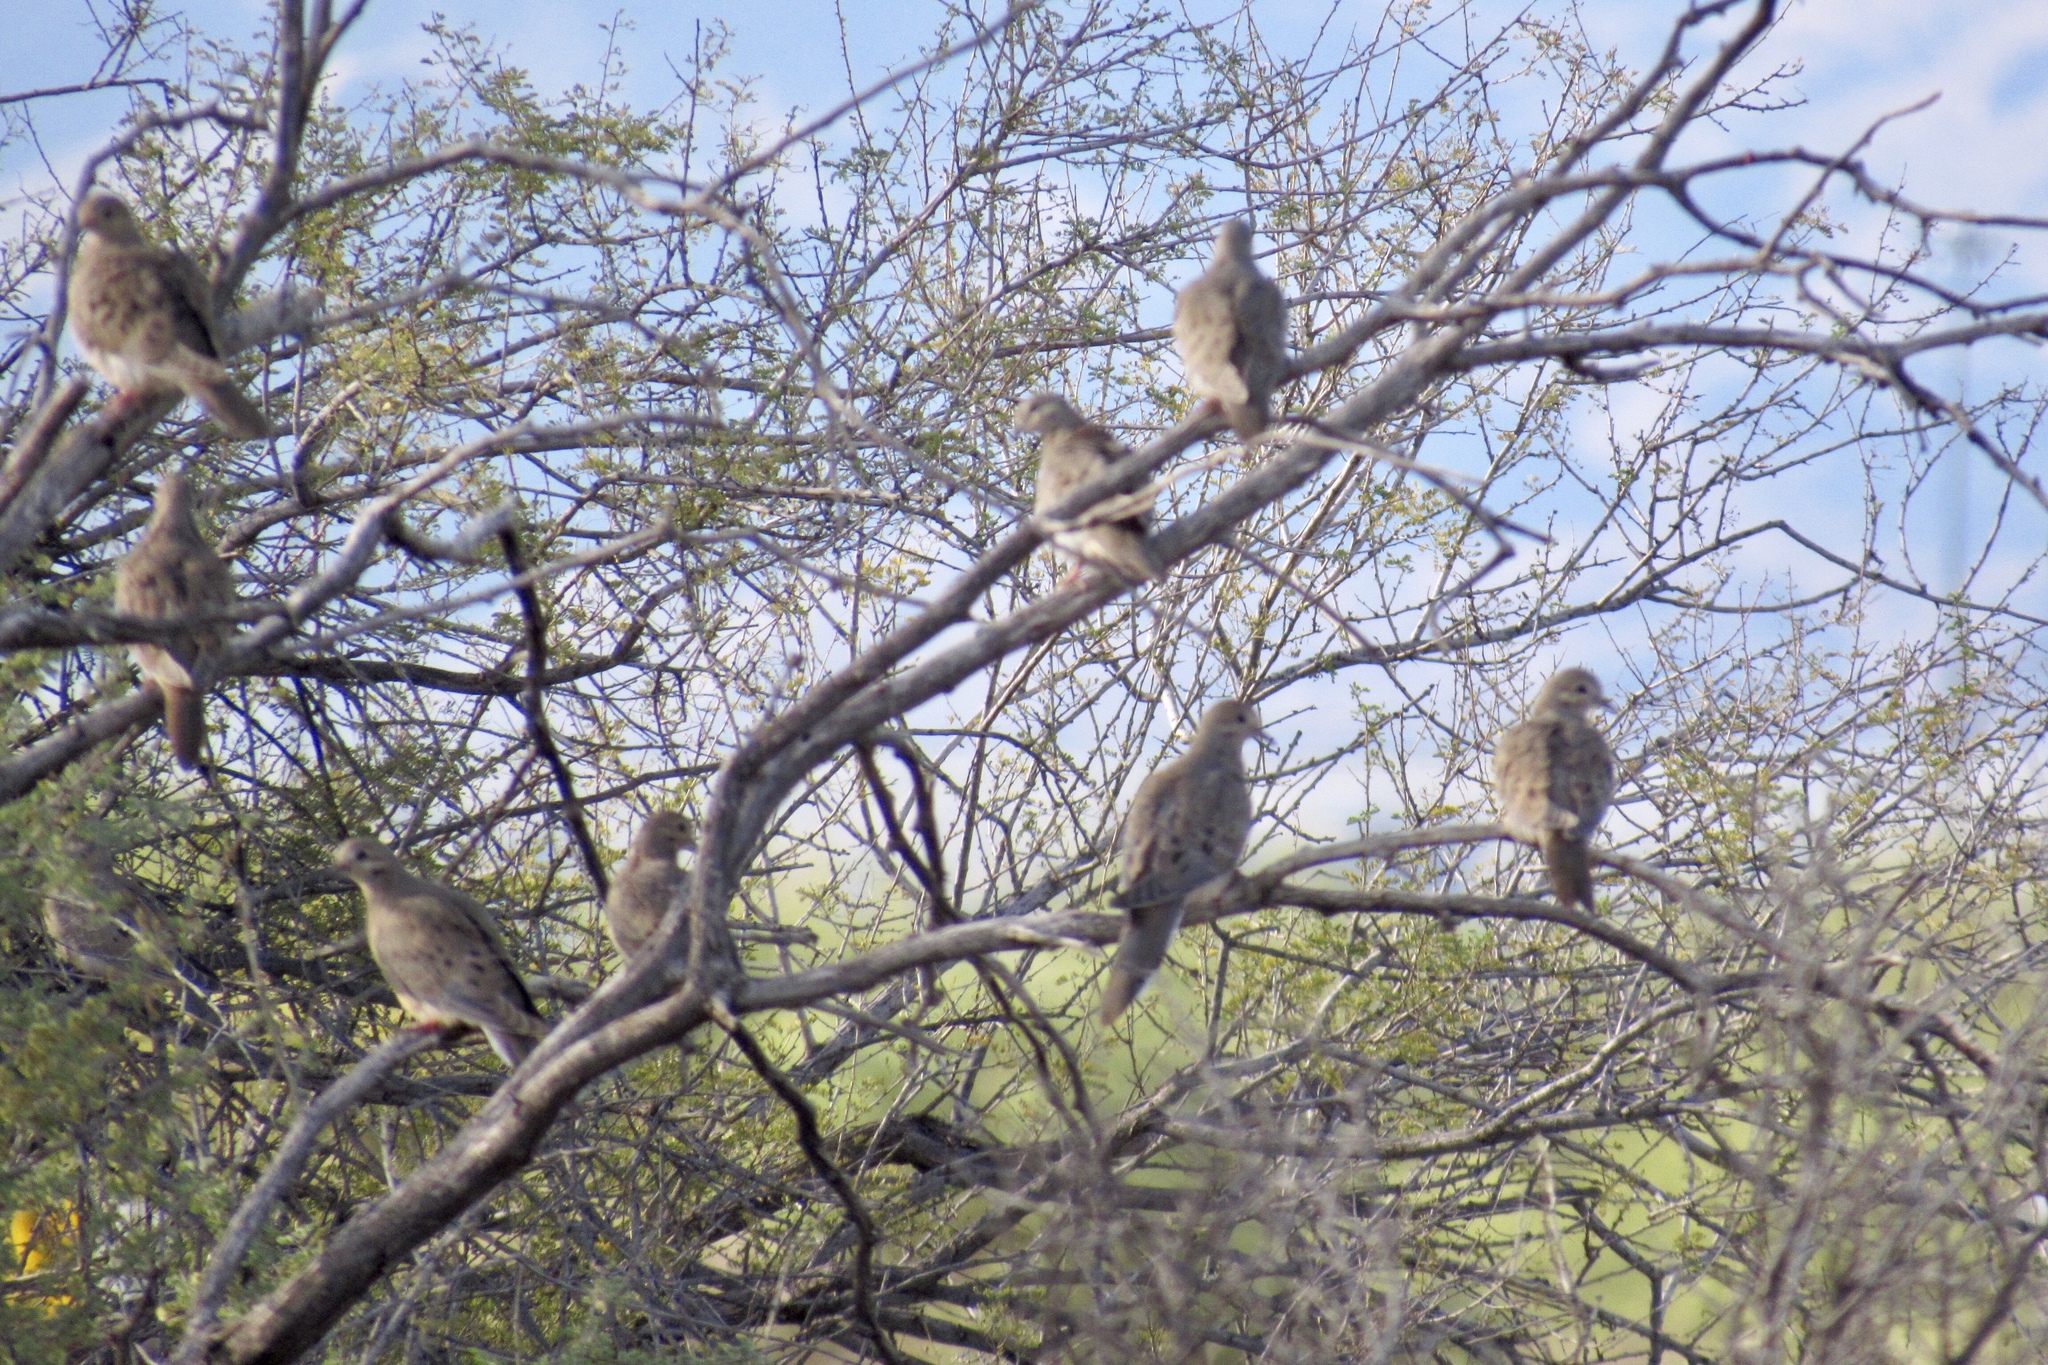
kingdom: Animalia
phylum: Chordata
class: Aves
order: Columbiformes
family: Columbidae
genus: Zenaida
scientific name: Zenaida macroura
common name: Mourning dove
